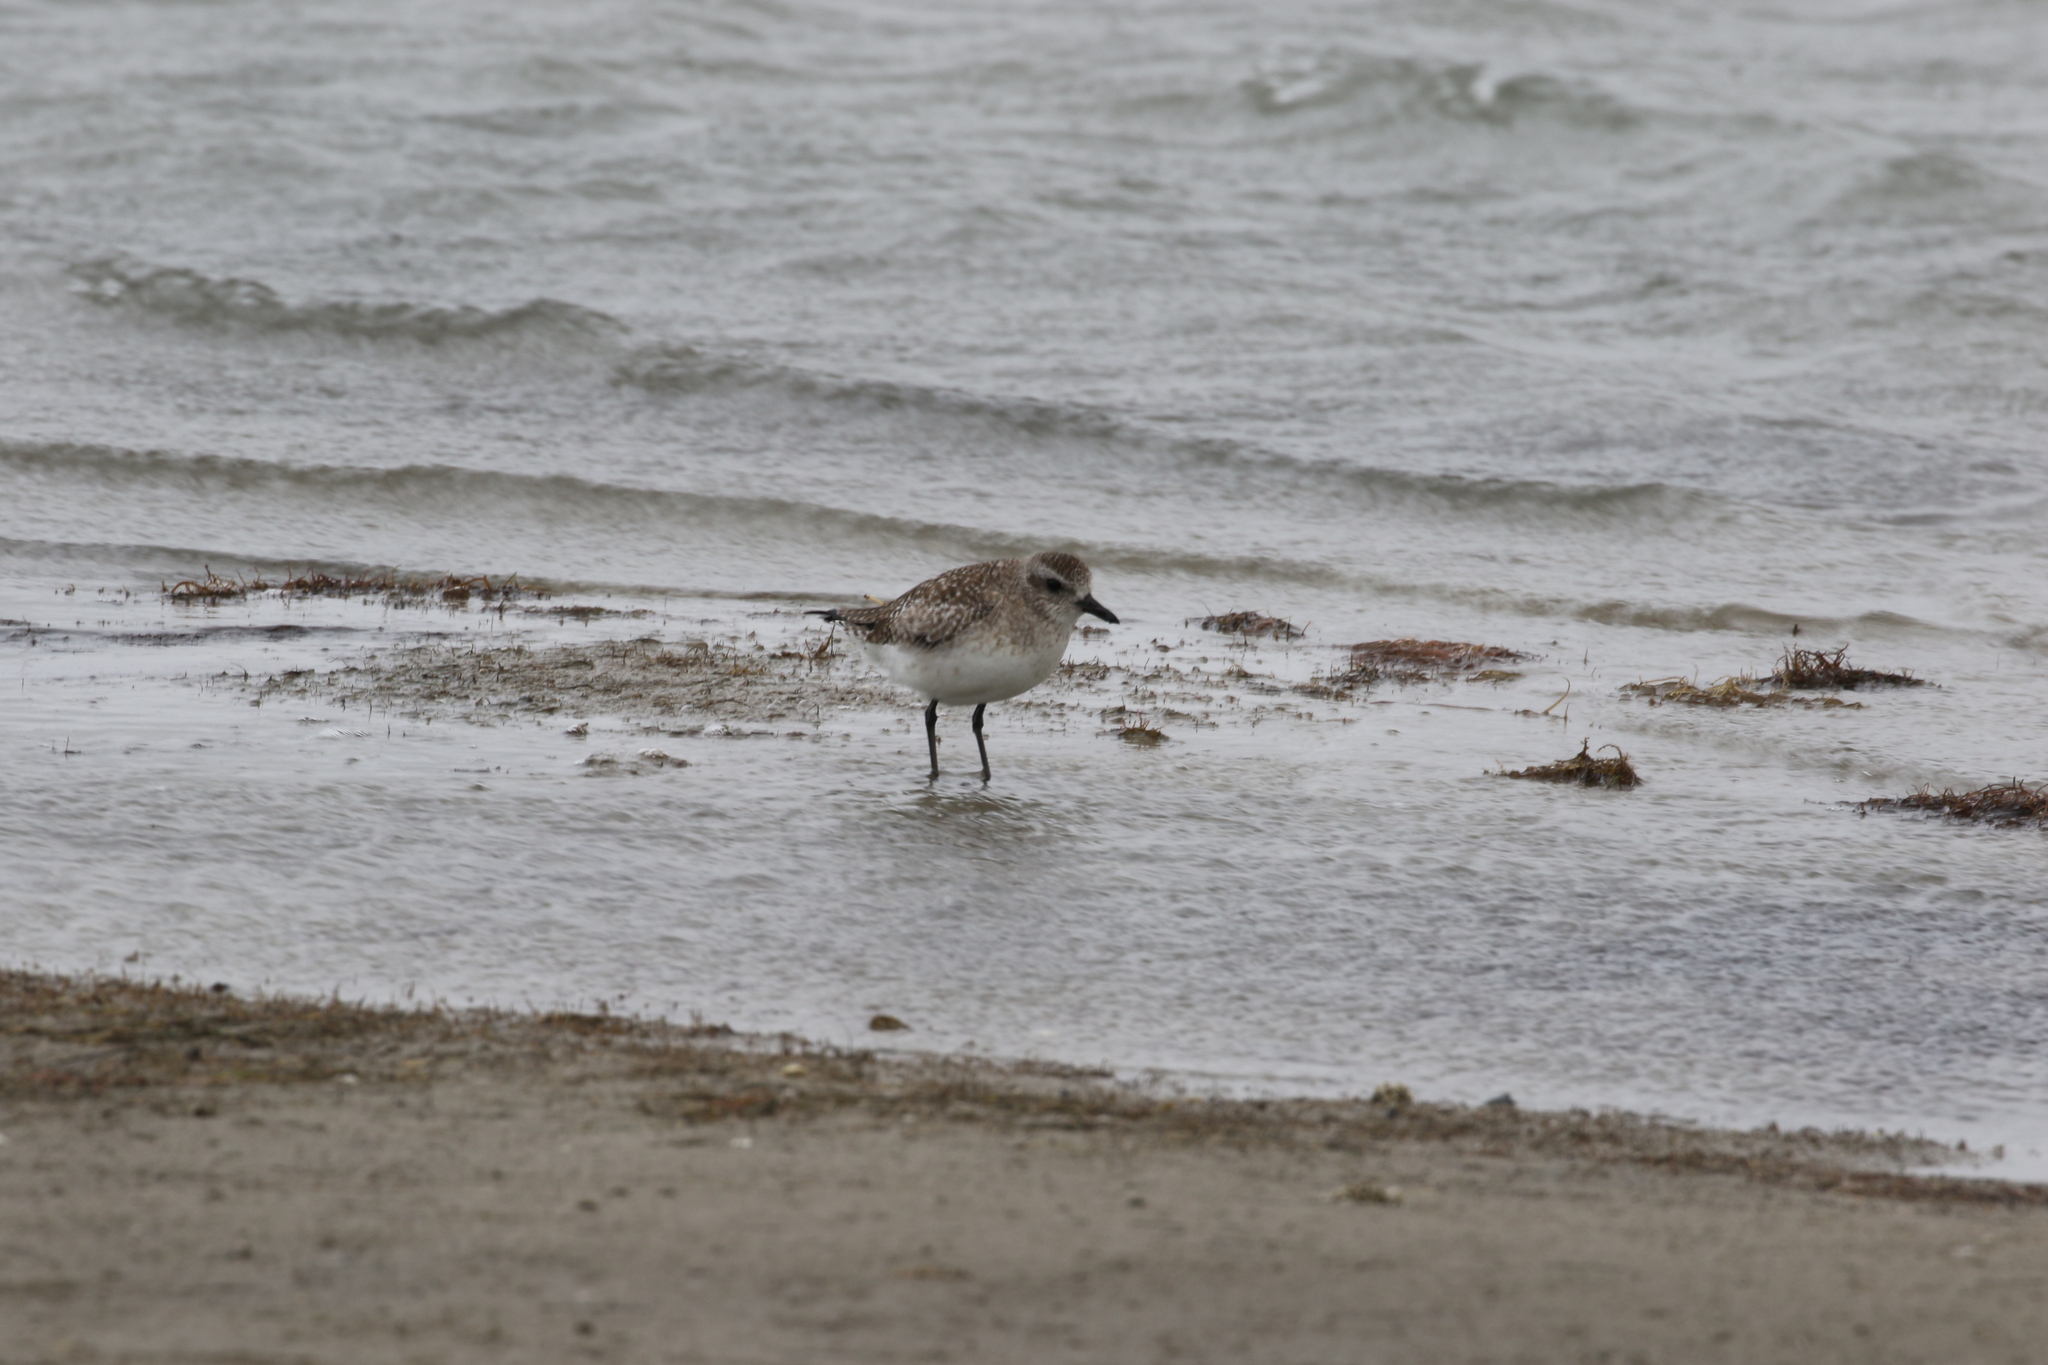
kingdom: Animalia
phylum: Chordata
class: Aves
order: Charadriiformes
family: Charadriidae
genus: Pluvialis
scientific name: Pluvialis squatarola
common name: Grey plover
